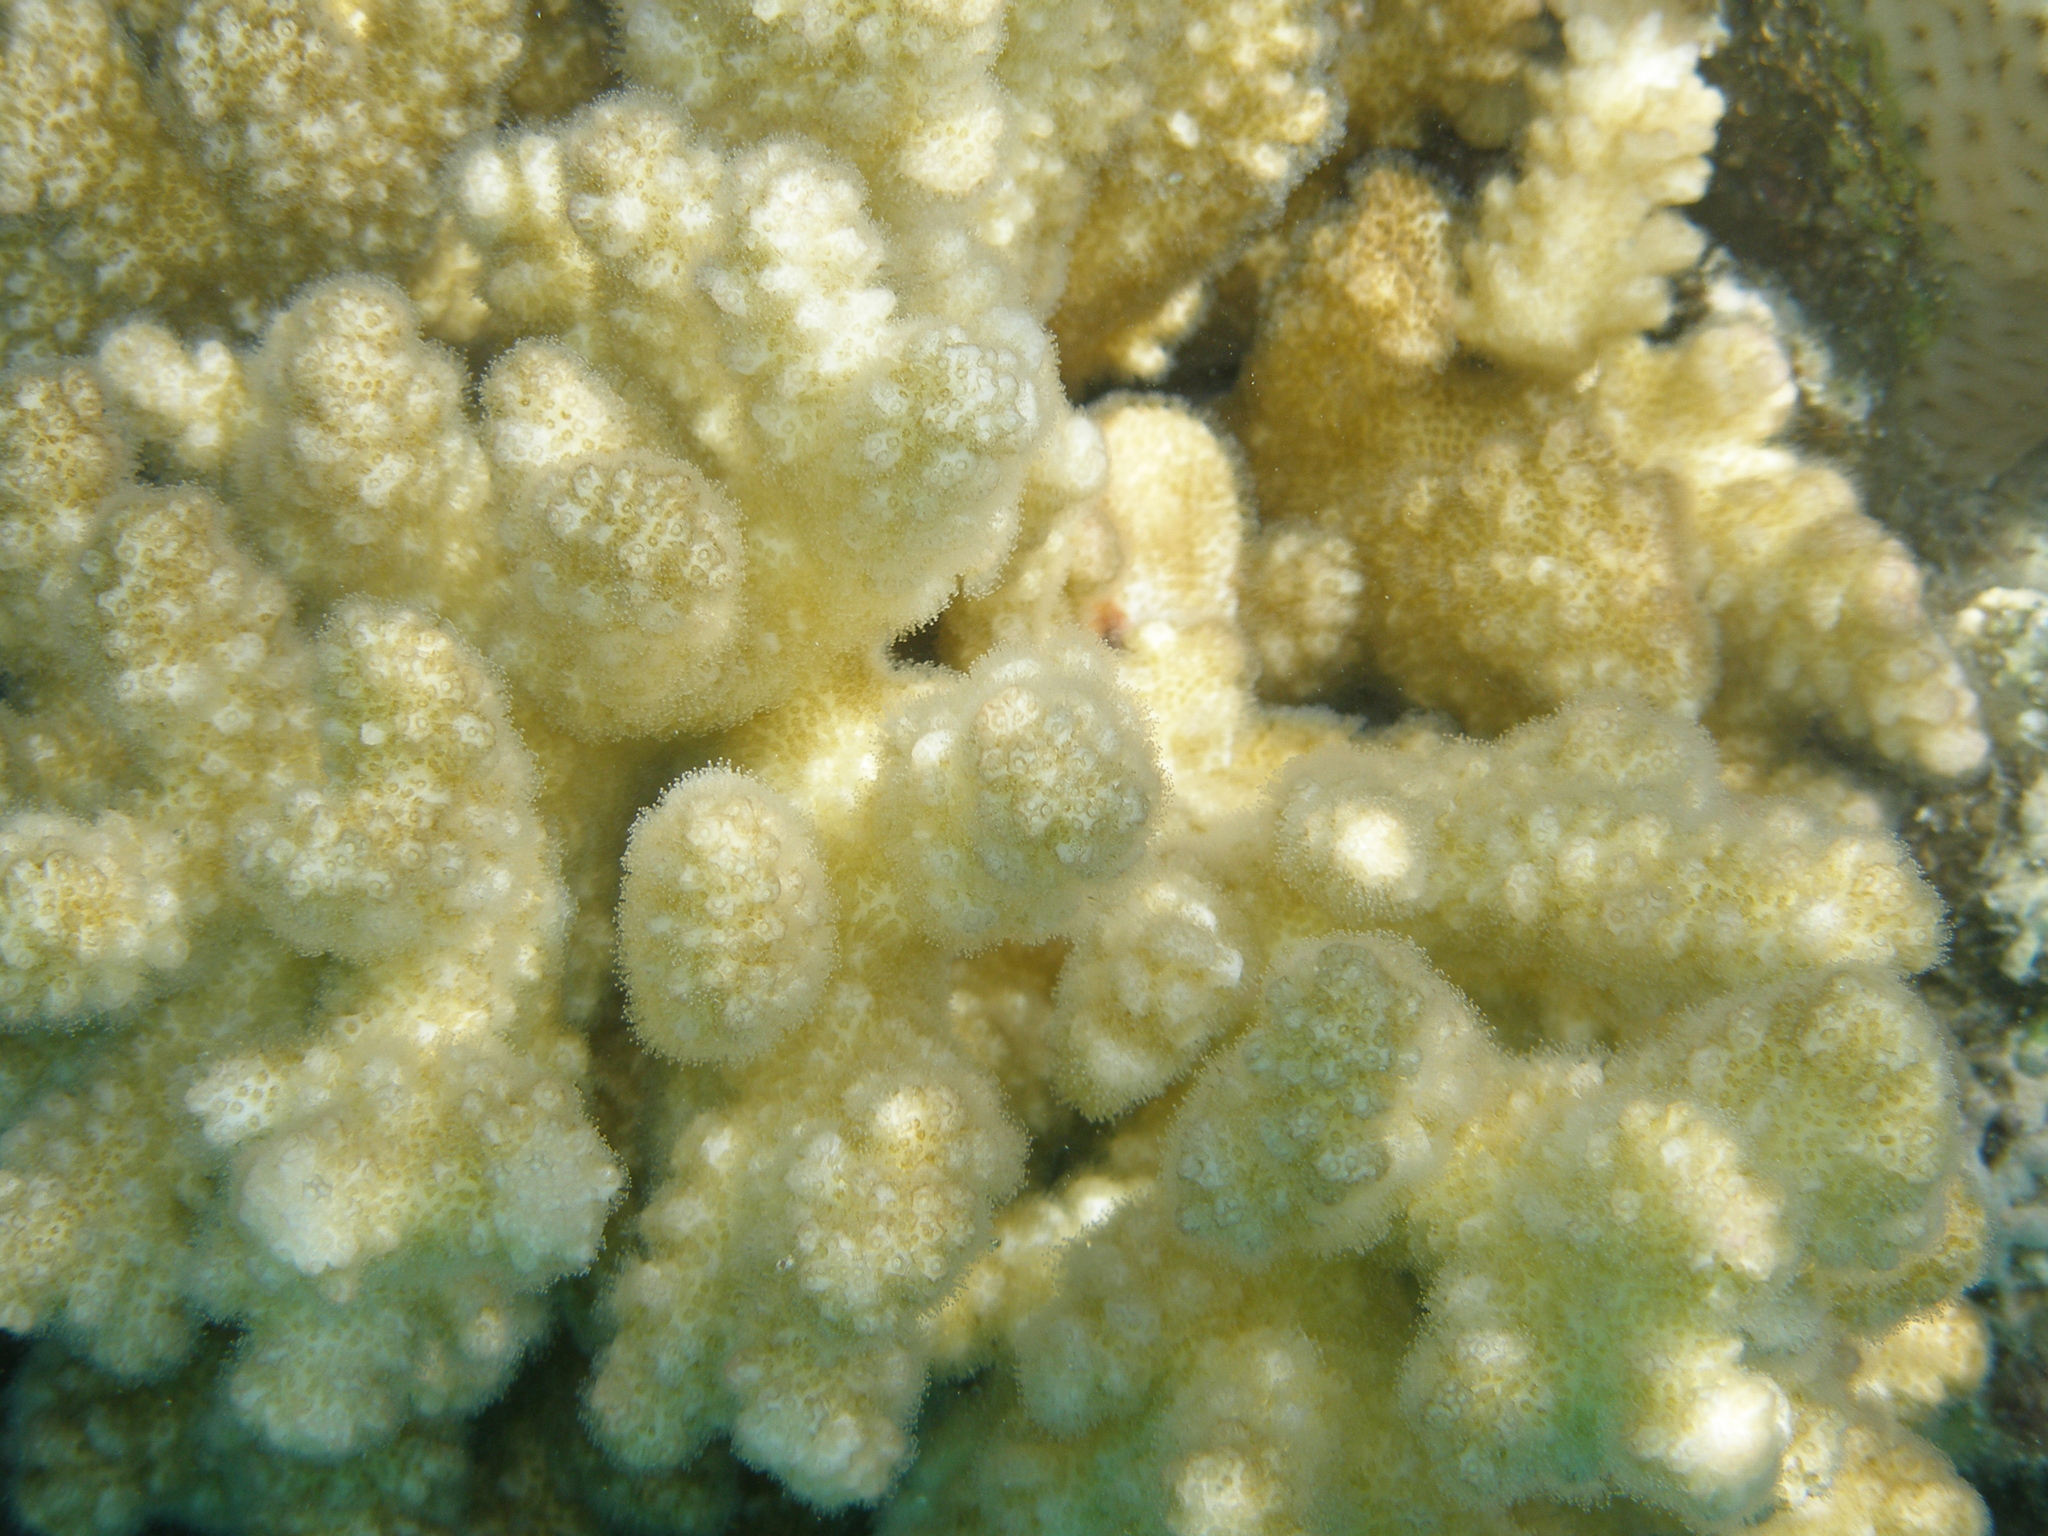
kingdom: Animalia
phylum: Cnidaria
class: Anthozoa
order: Scleractinia
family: Pocilloporidae
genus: Pocillopora
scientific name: Pocillopora verrucosa
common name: Cauliflower coral
